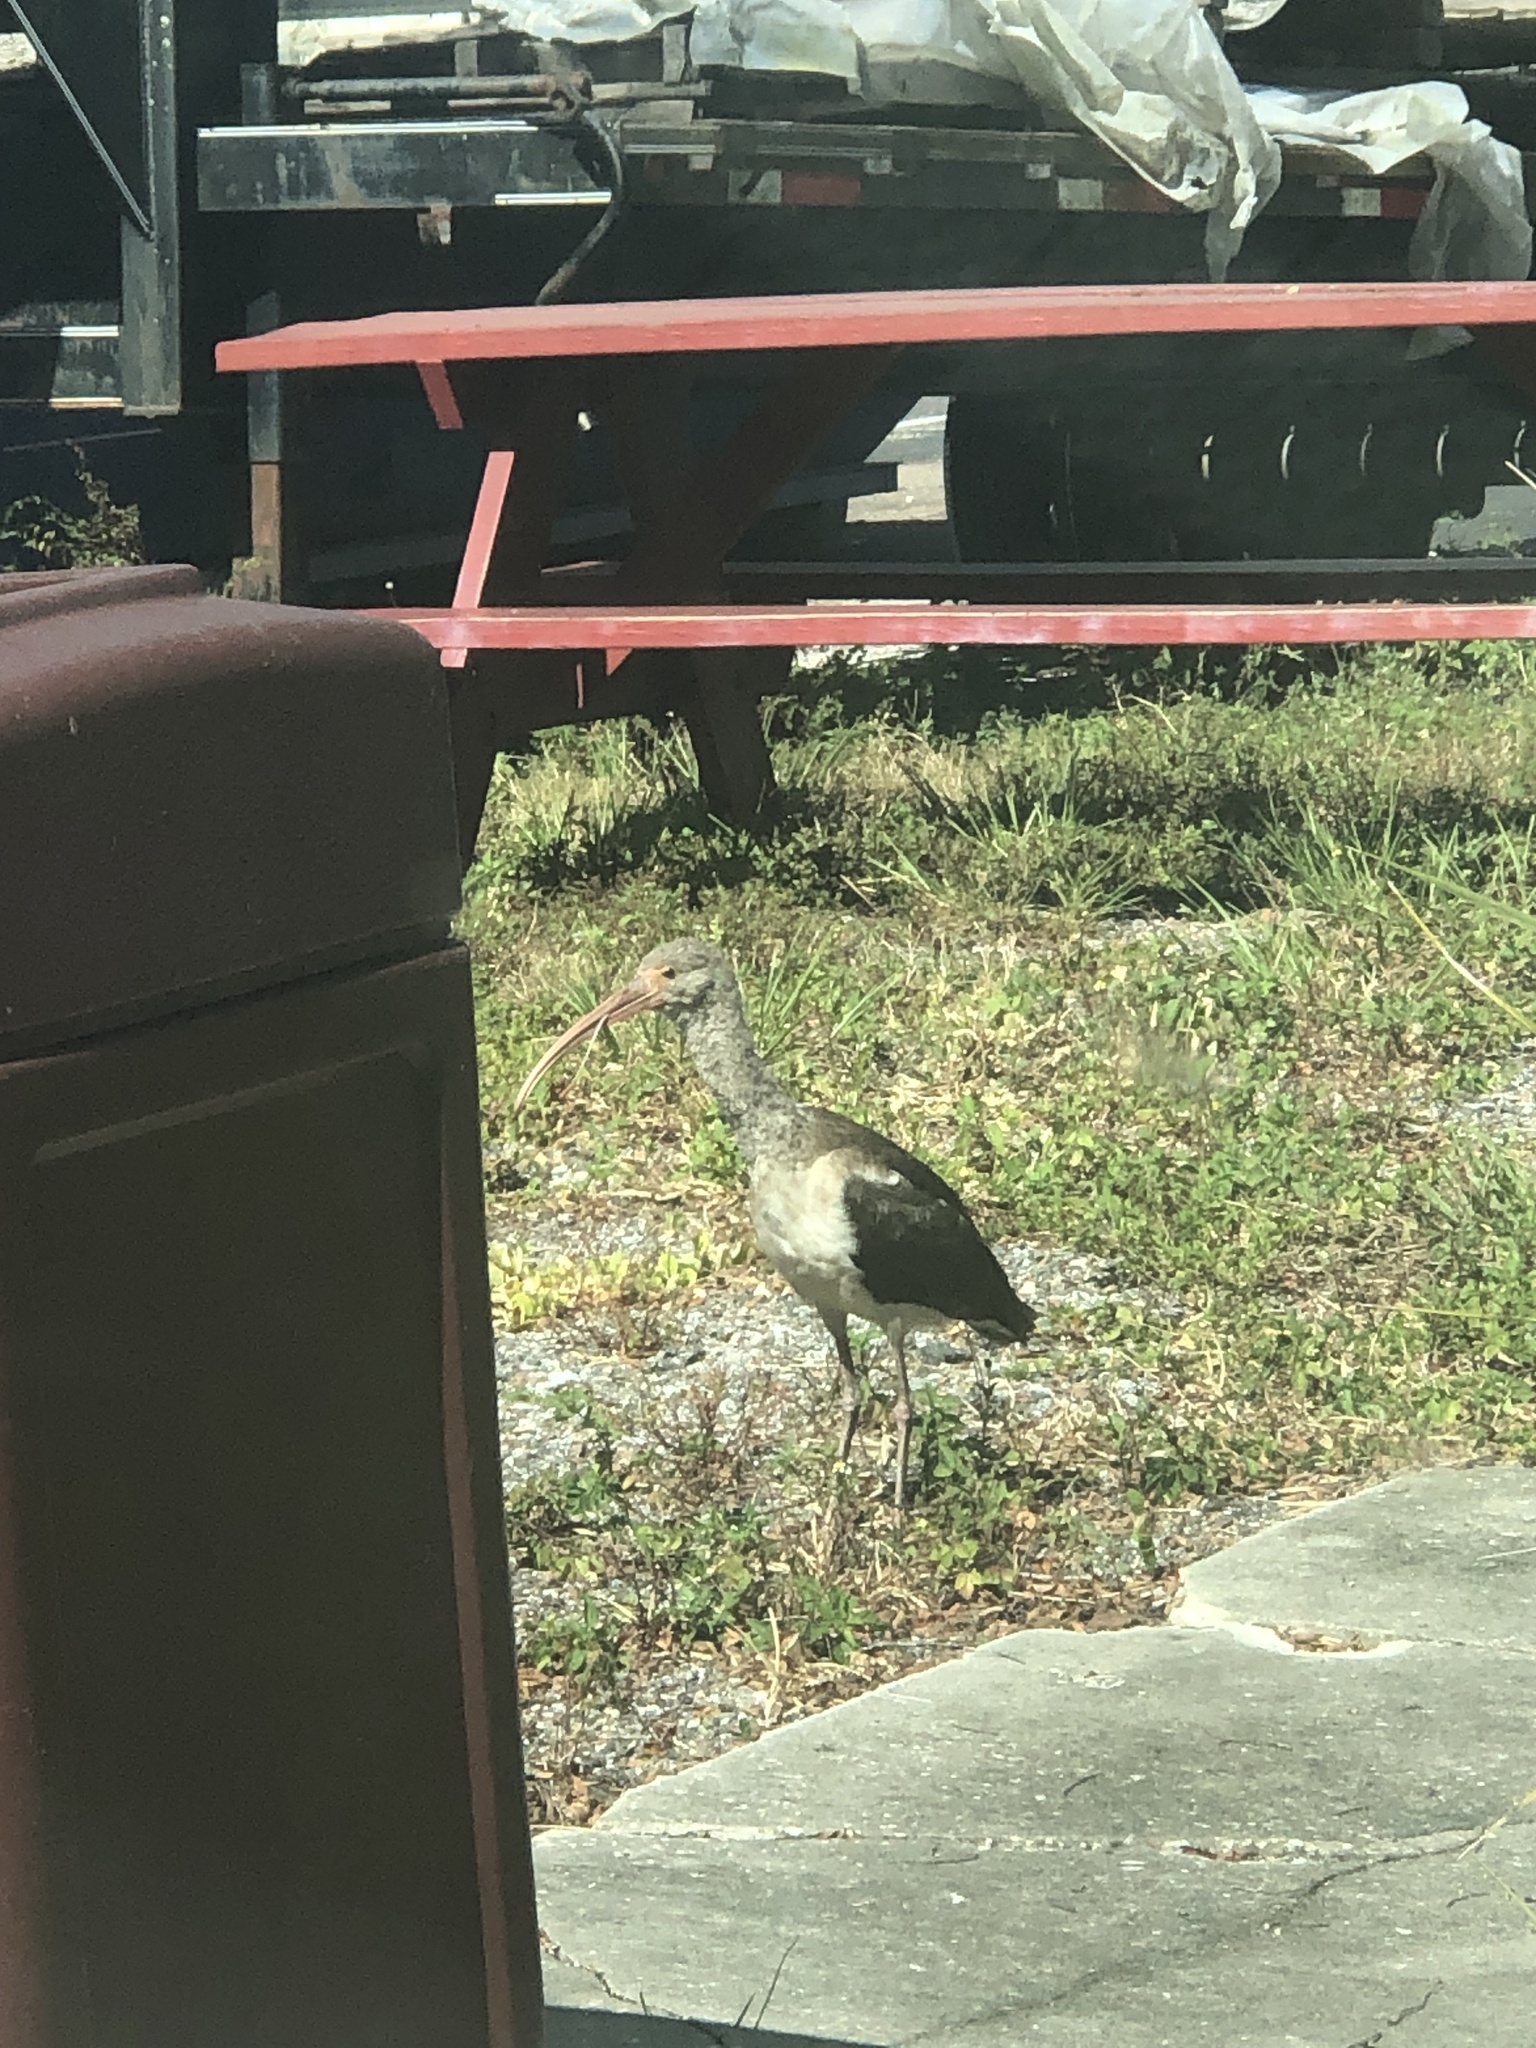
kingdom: Animalia
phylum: Chordata
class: Aves
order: Pelecaniformes
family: Threskiornithidae
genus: Eudocimus
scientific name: Eudocimus albus
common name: White ibis
